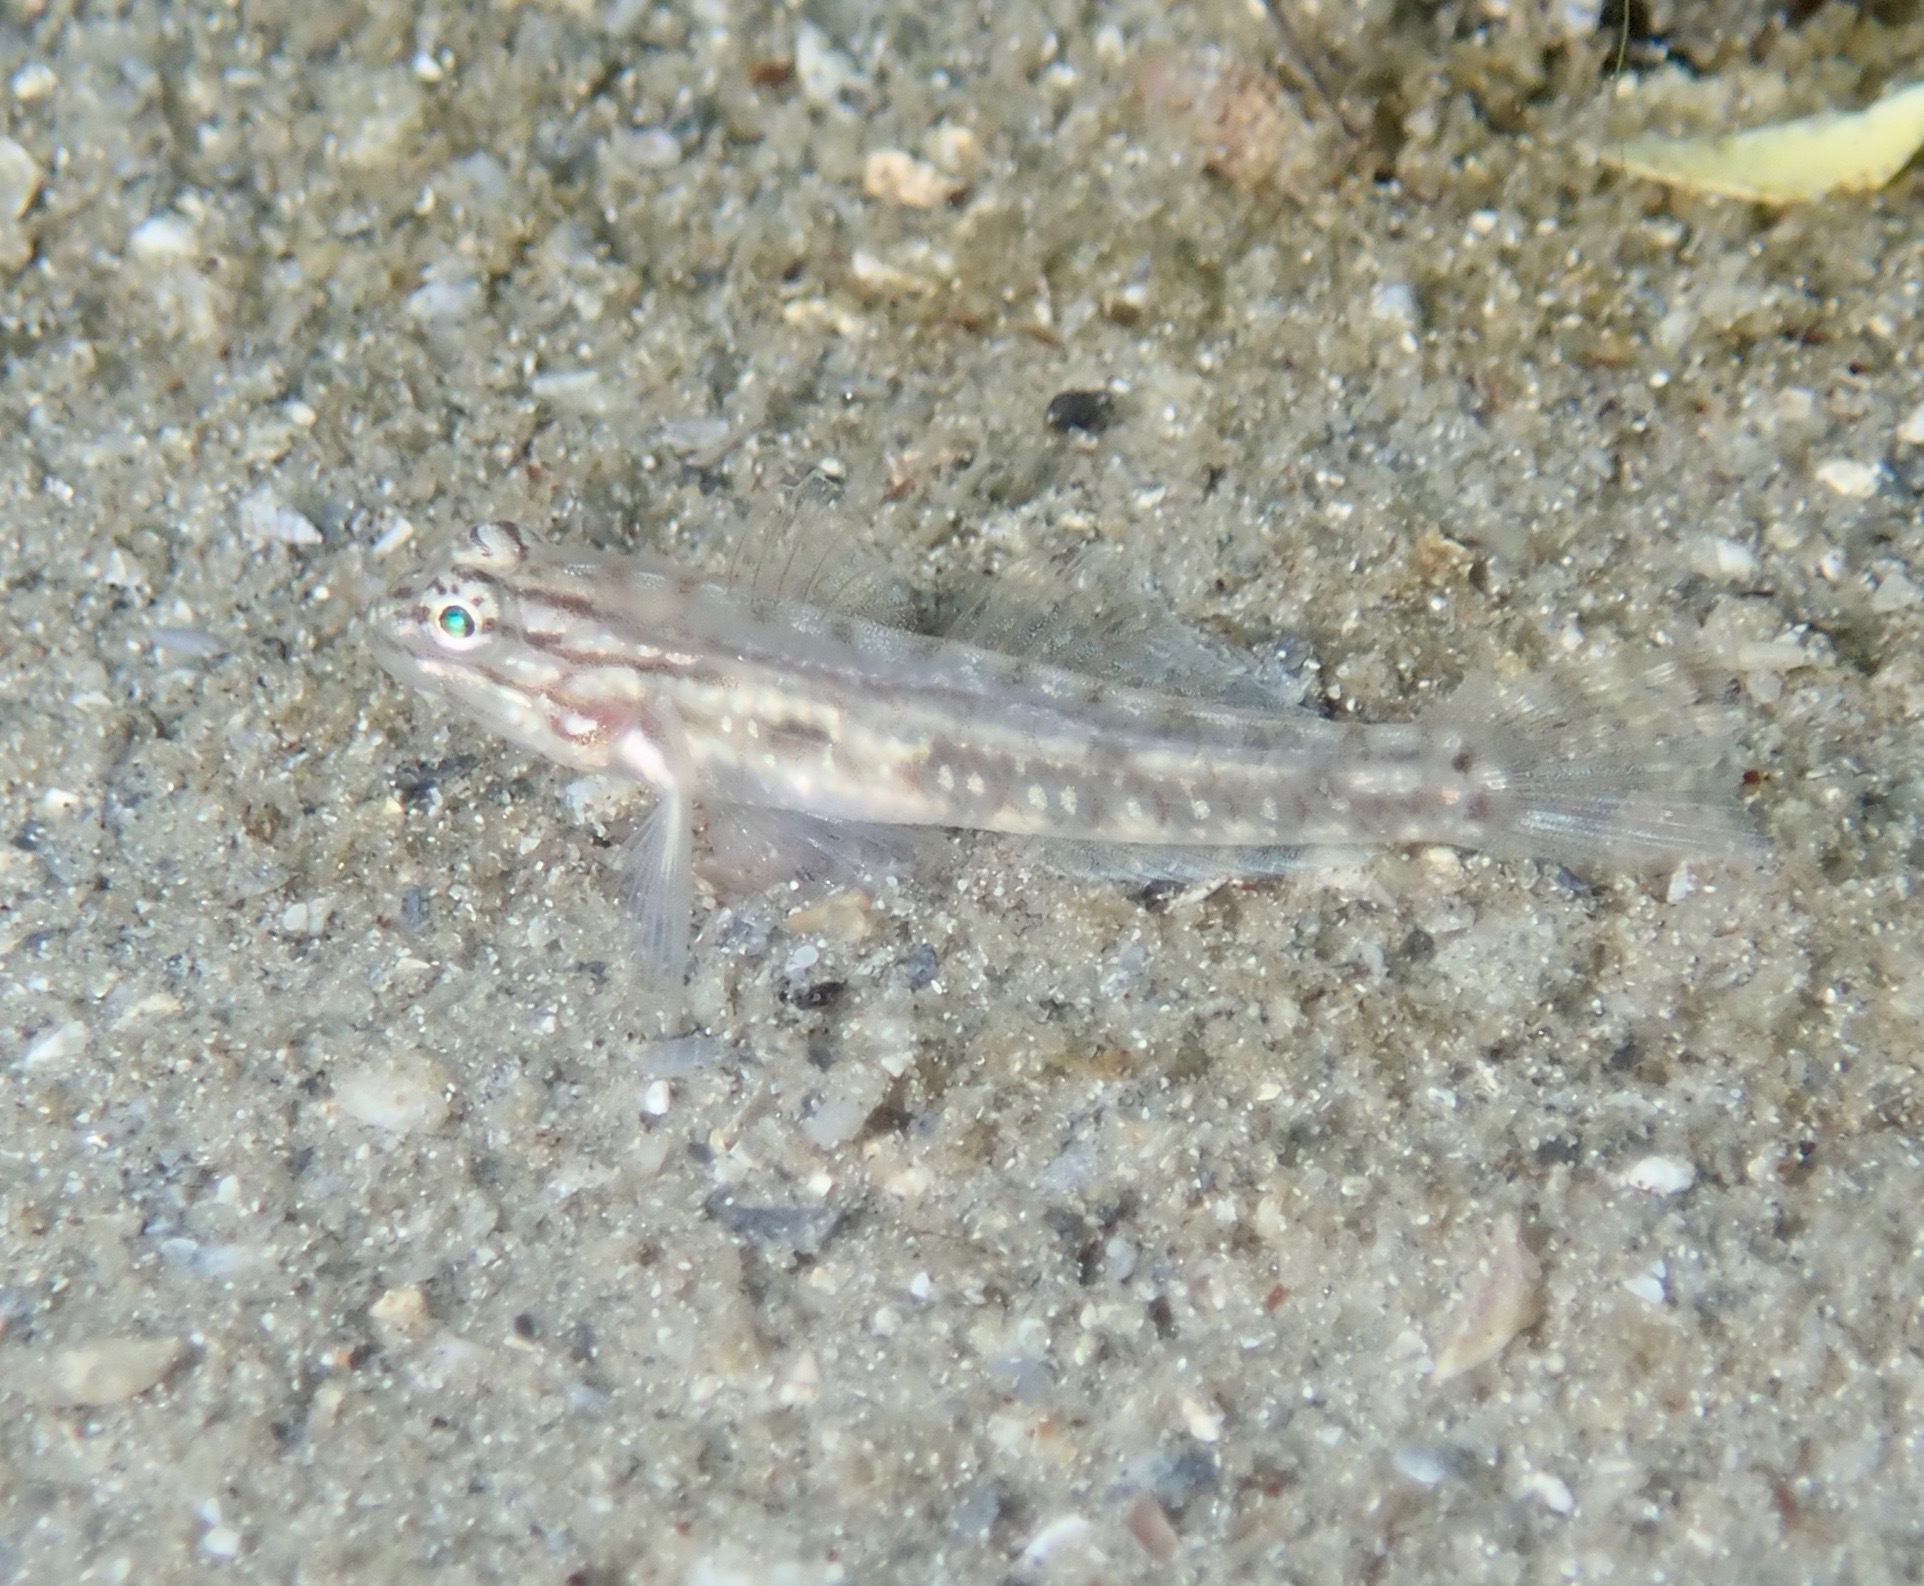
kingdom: Animalia
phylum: Chordata
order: Perciformes
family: Gobiidae
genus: Coryphopterus
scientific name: Coryphopterus glaucofraenum
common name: Bridled goby
